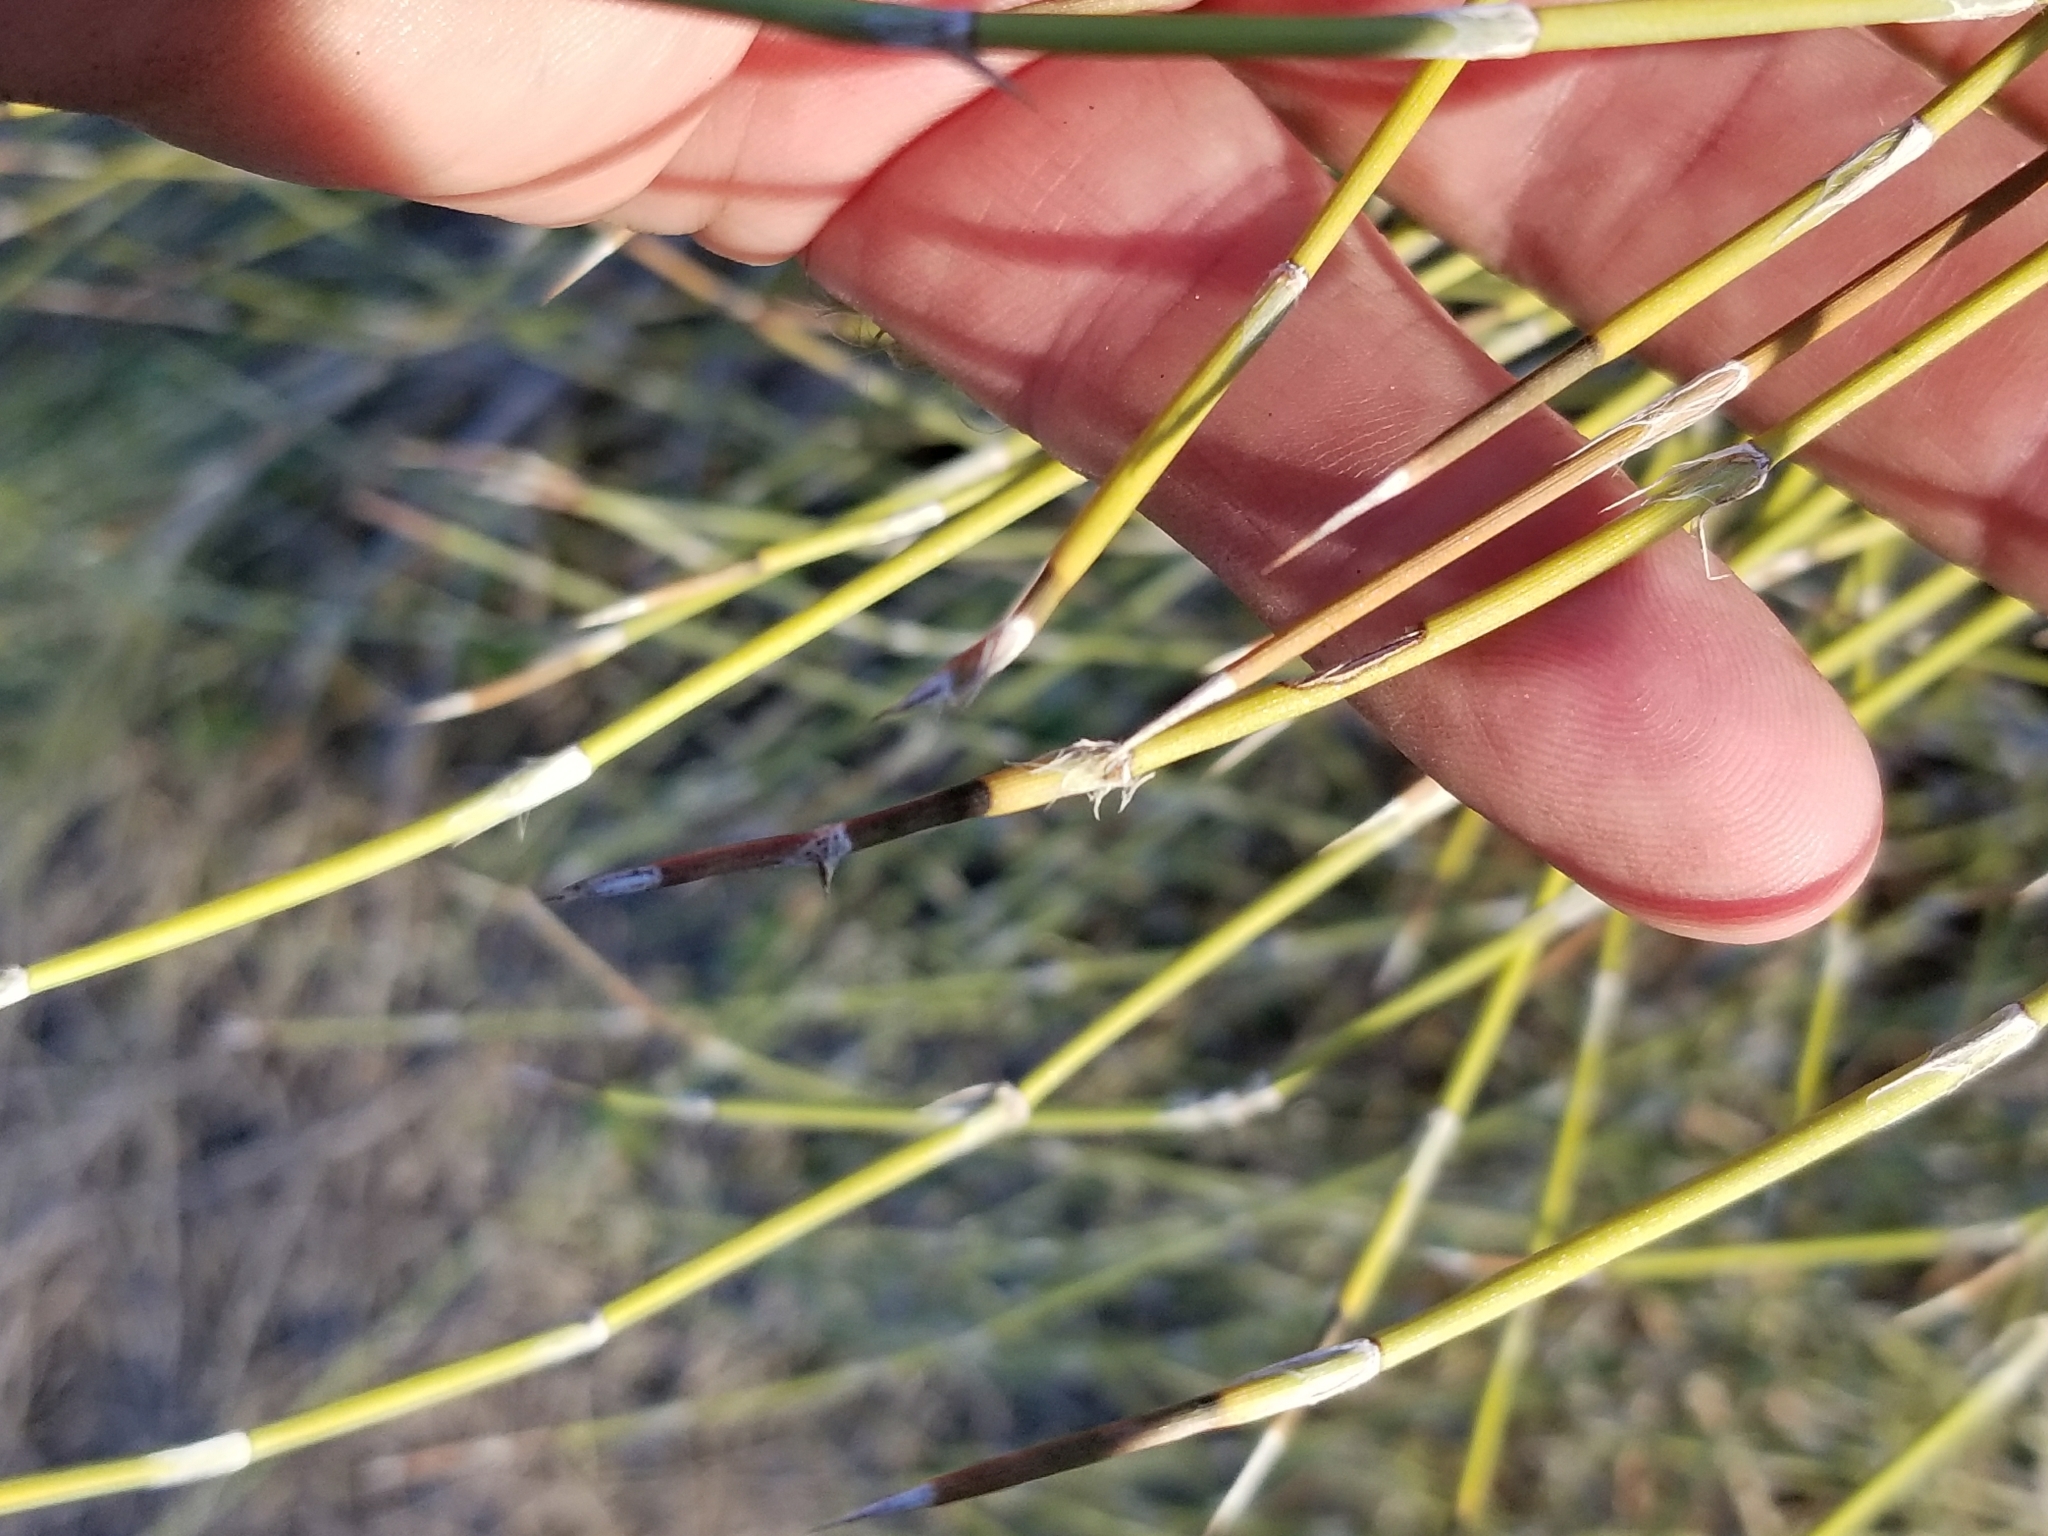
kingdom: Plantae
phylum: Tracheophyta
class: Gnetopsida
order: Ephedrales
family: Ephedraceae
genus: Ephedra
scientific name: Ephedra trifurca
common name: Mexican-tea
